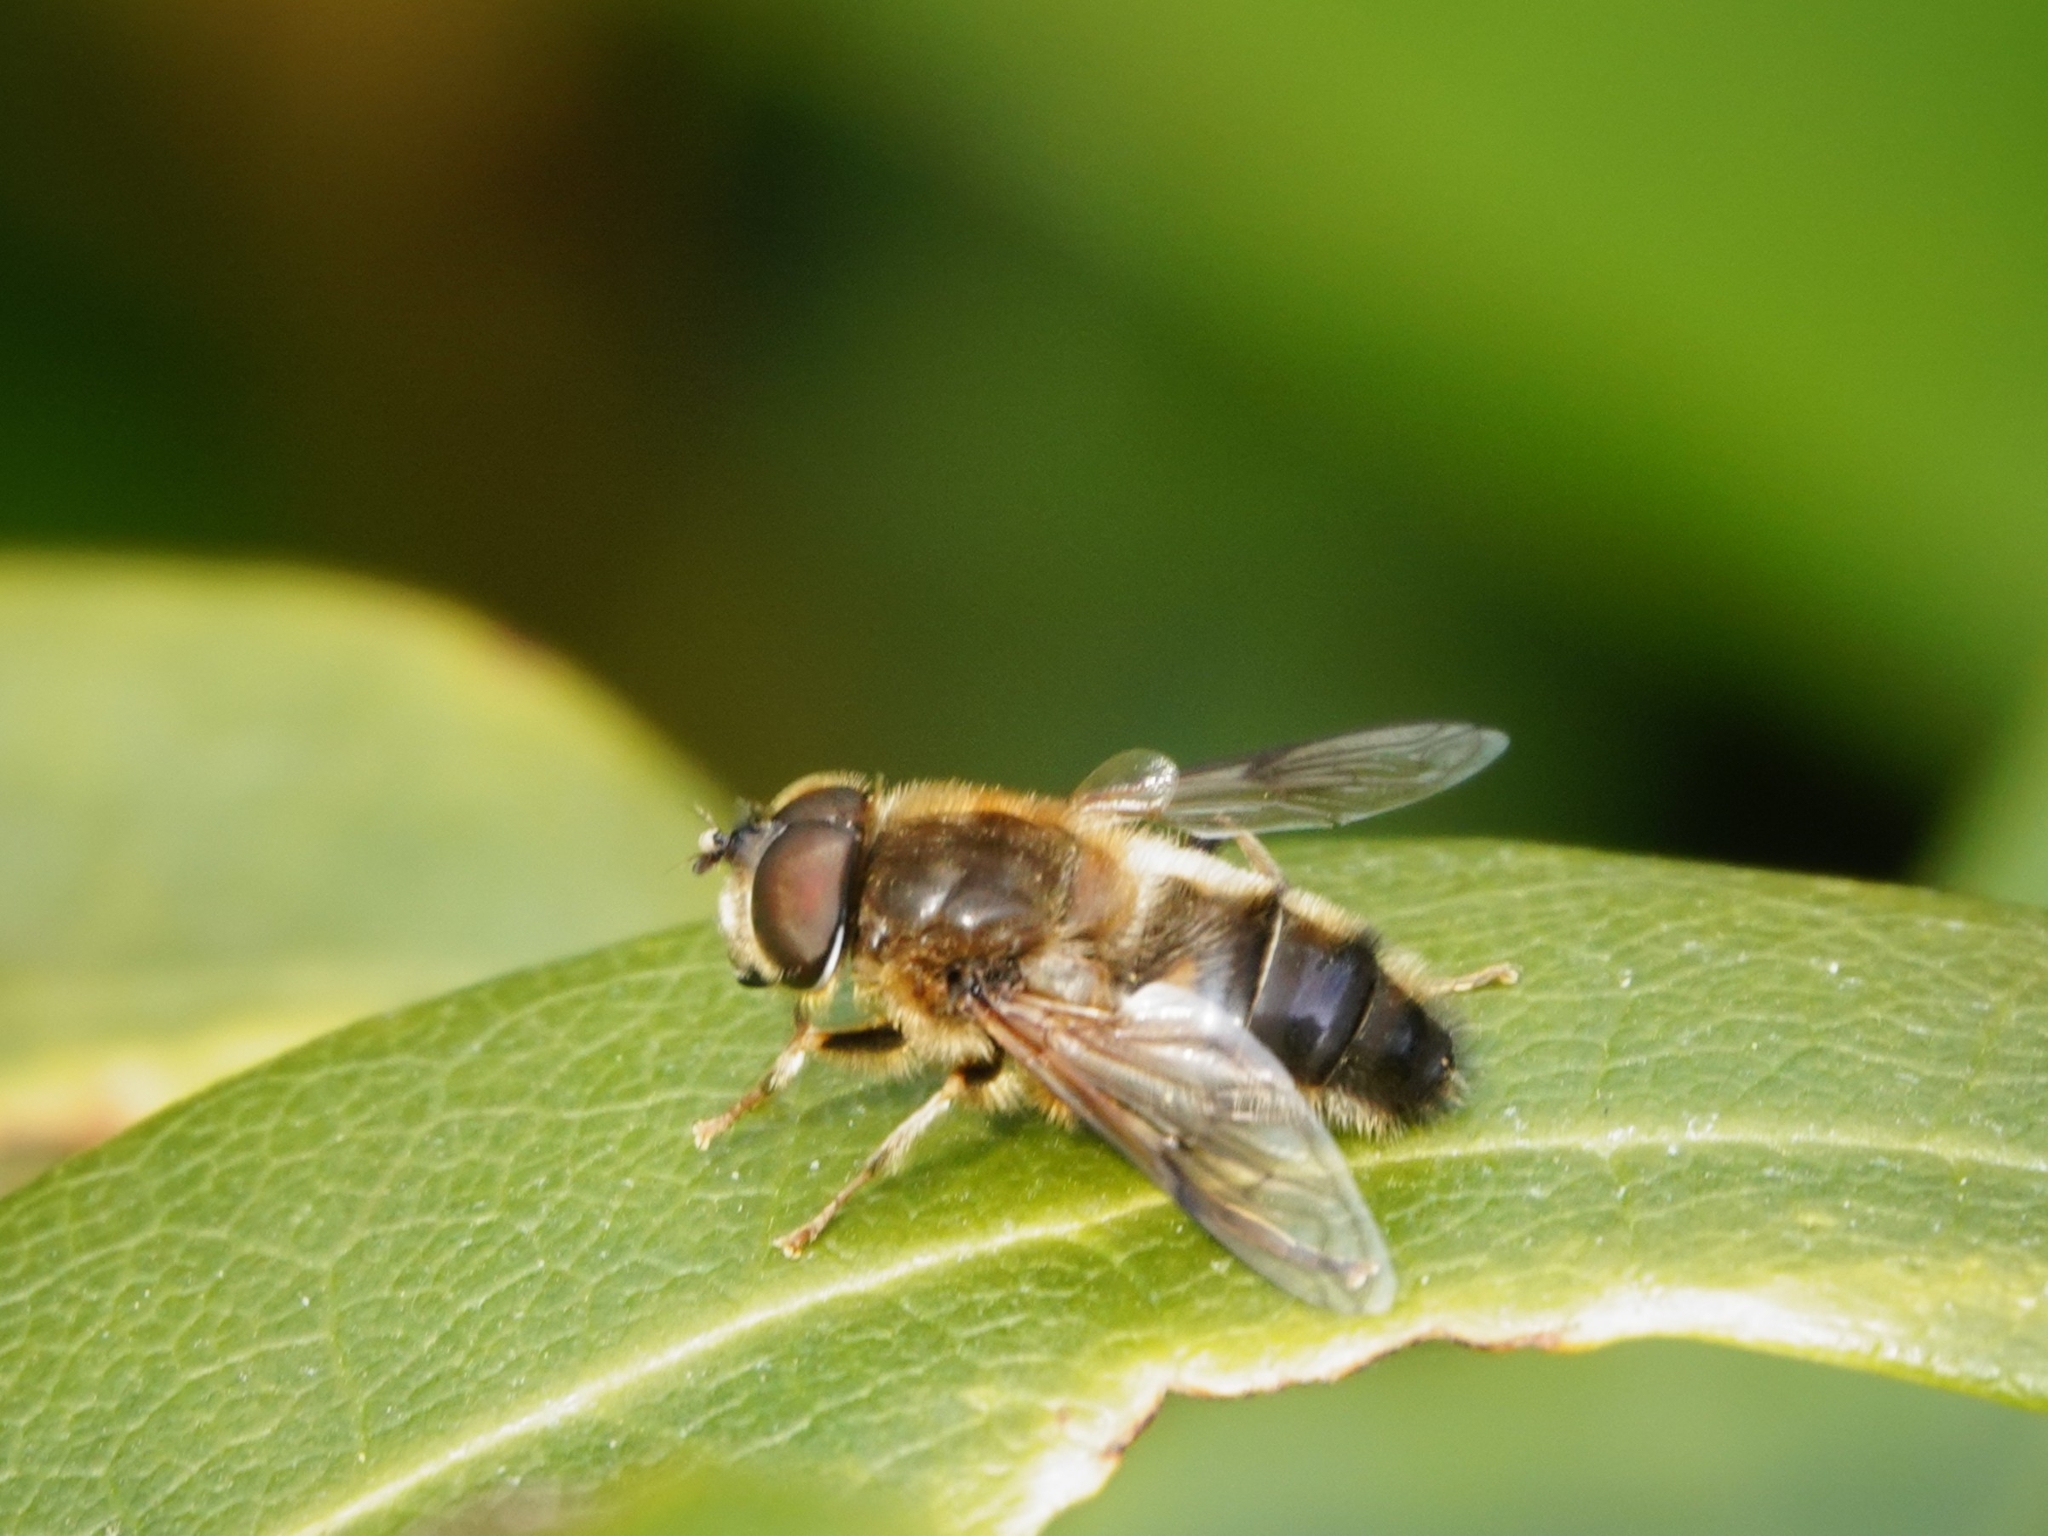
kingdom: Animalia
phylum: Arthropoda
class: Insecta
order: Diptera
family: Syrphidae
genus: Eristalis
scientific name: Eristalis pertinax
